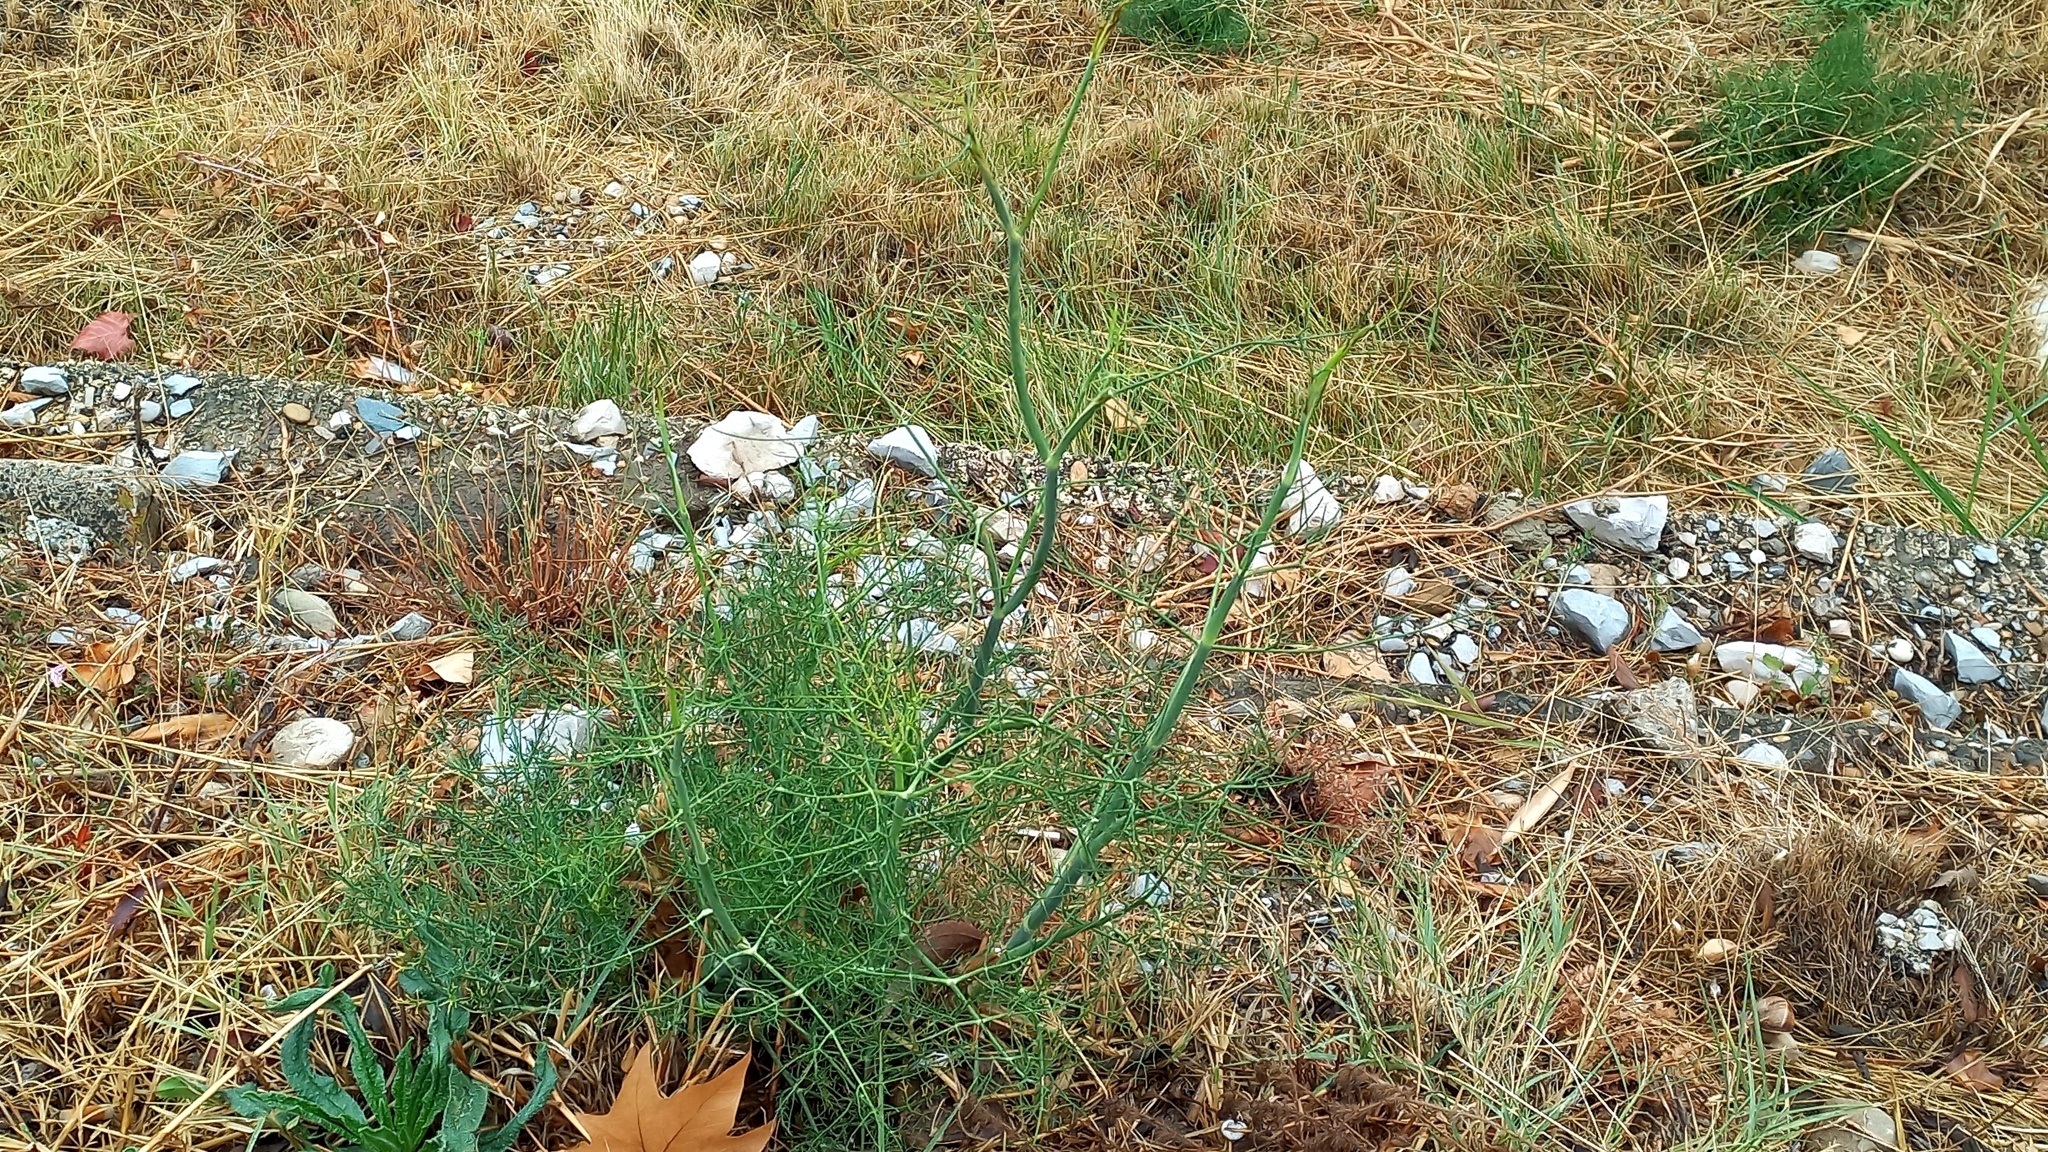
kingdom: Plantae
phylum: Tracheophyta
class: Magnoliopsida
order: Apiales
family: Apiaceae
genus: Foeniculum
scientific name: Foeniculum vulgare
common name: Fennel
